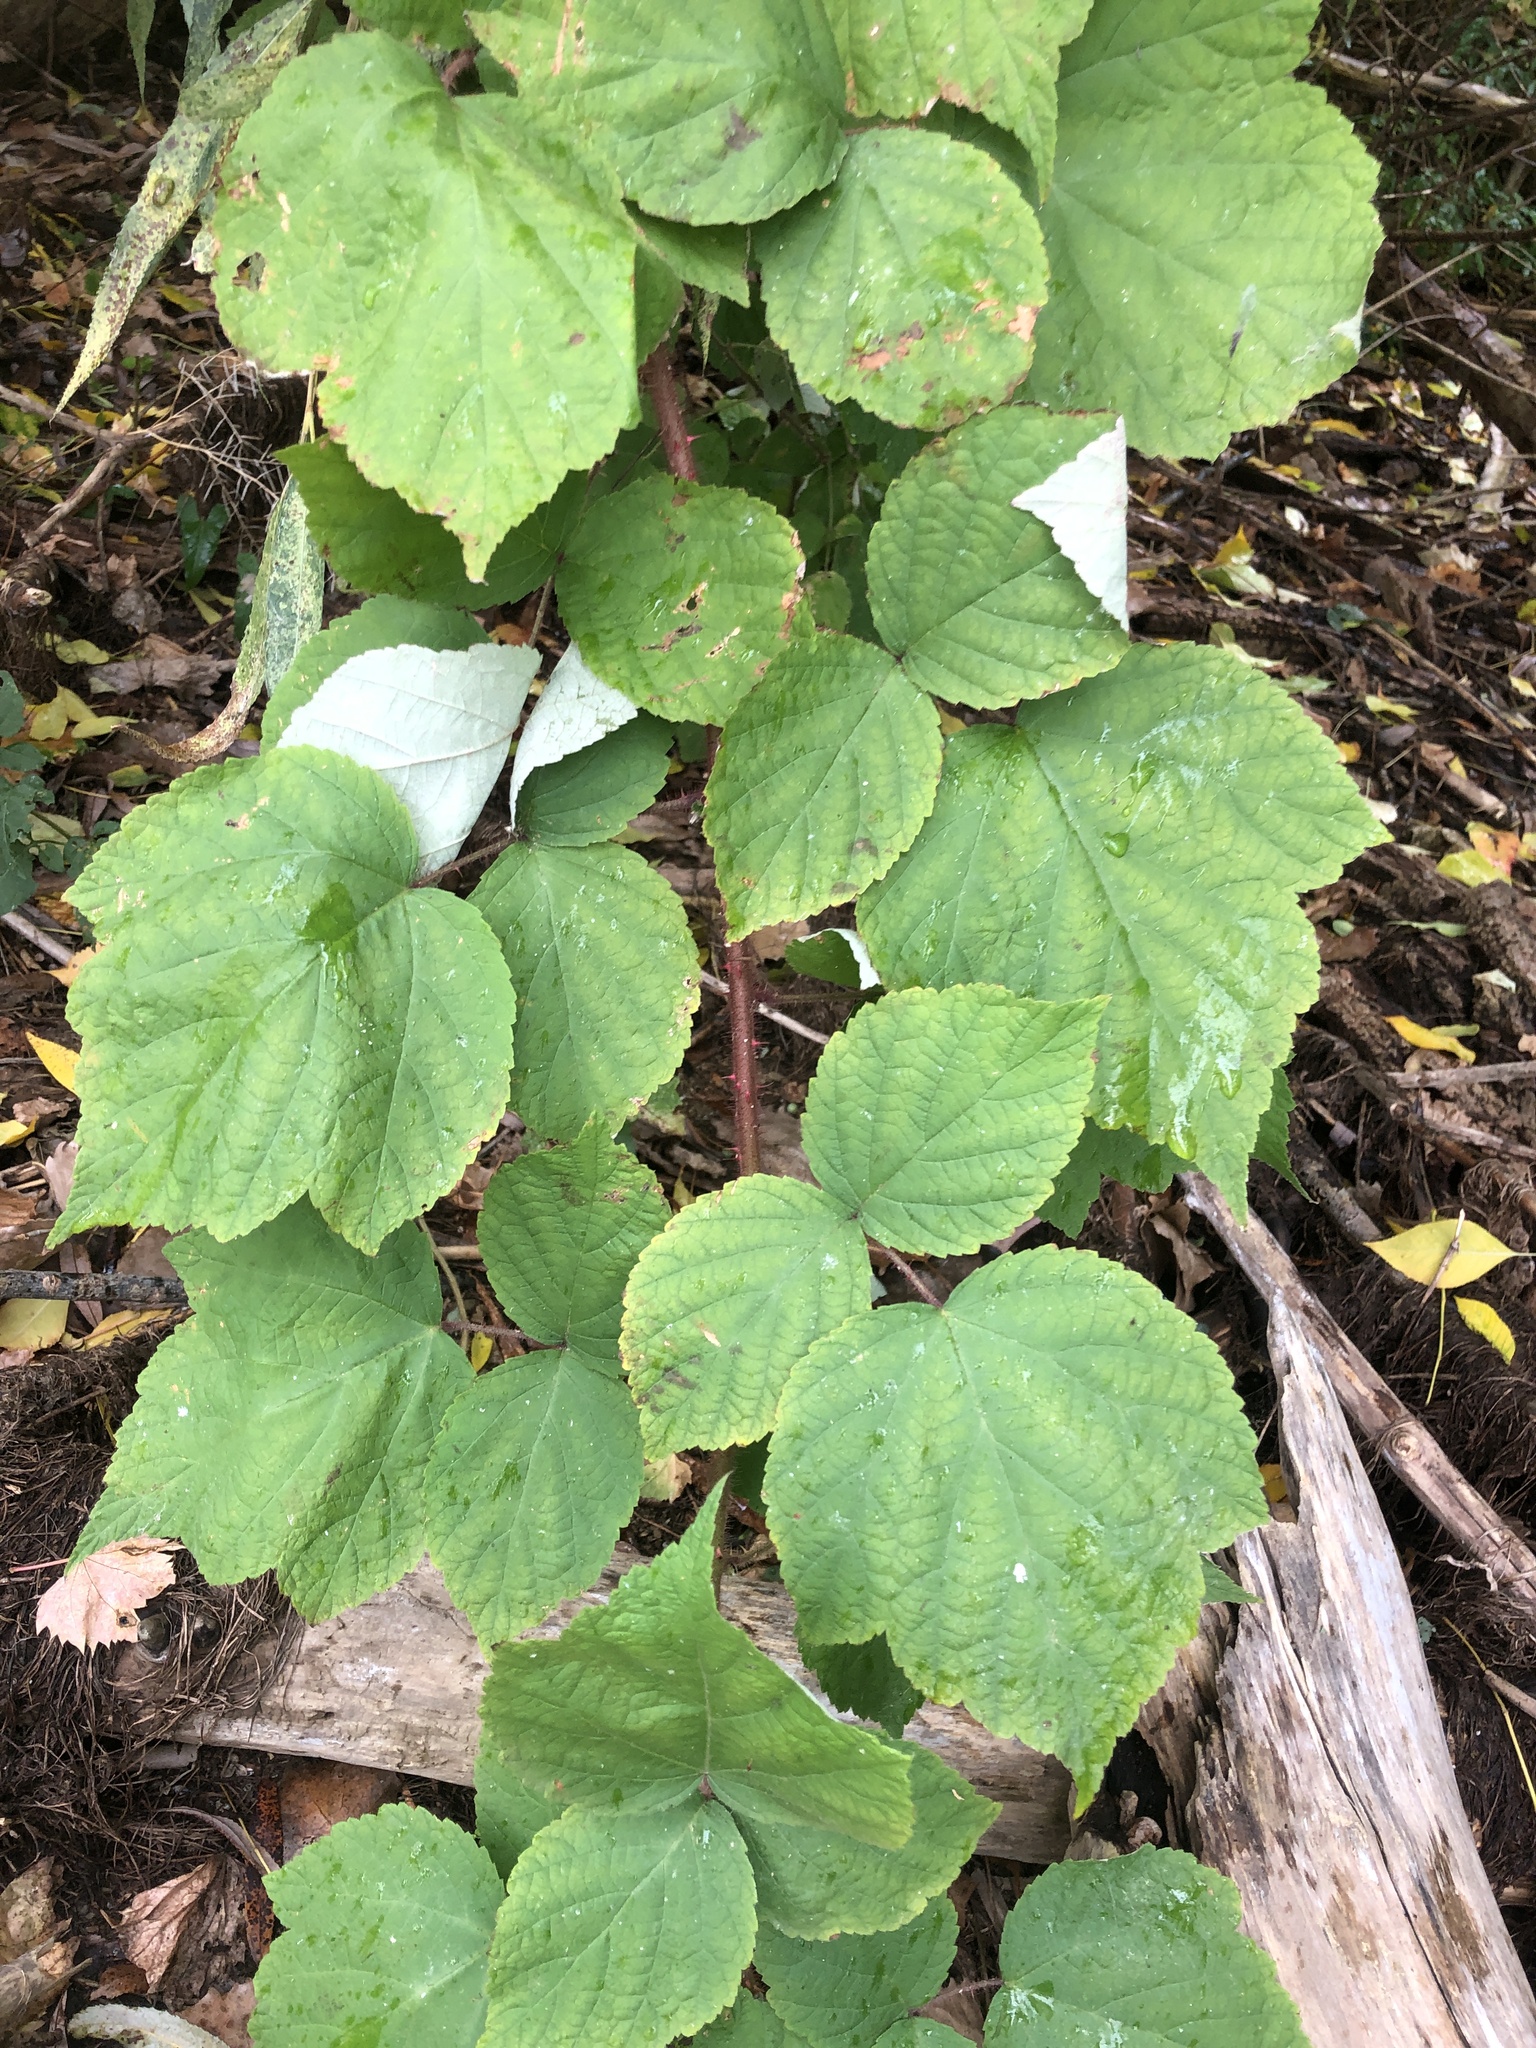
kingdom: Plantae
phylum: Tracheophyta
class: Magnoliopsida
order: Rosales
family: Rosaceae
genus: Rubus
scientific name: Rubus phoenicolasius
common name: Japanese wineberry
